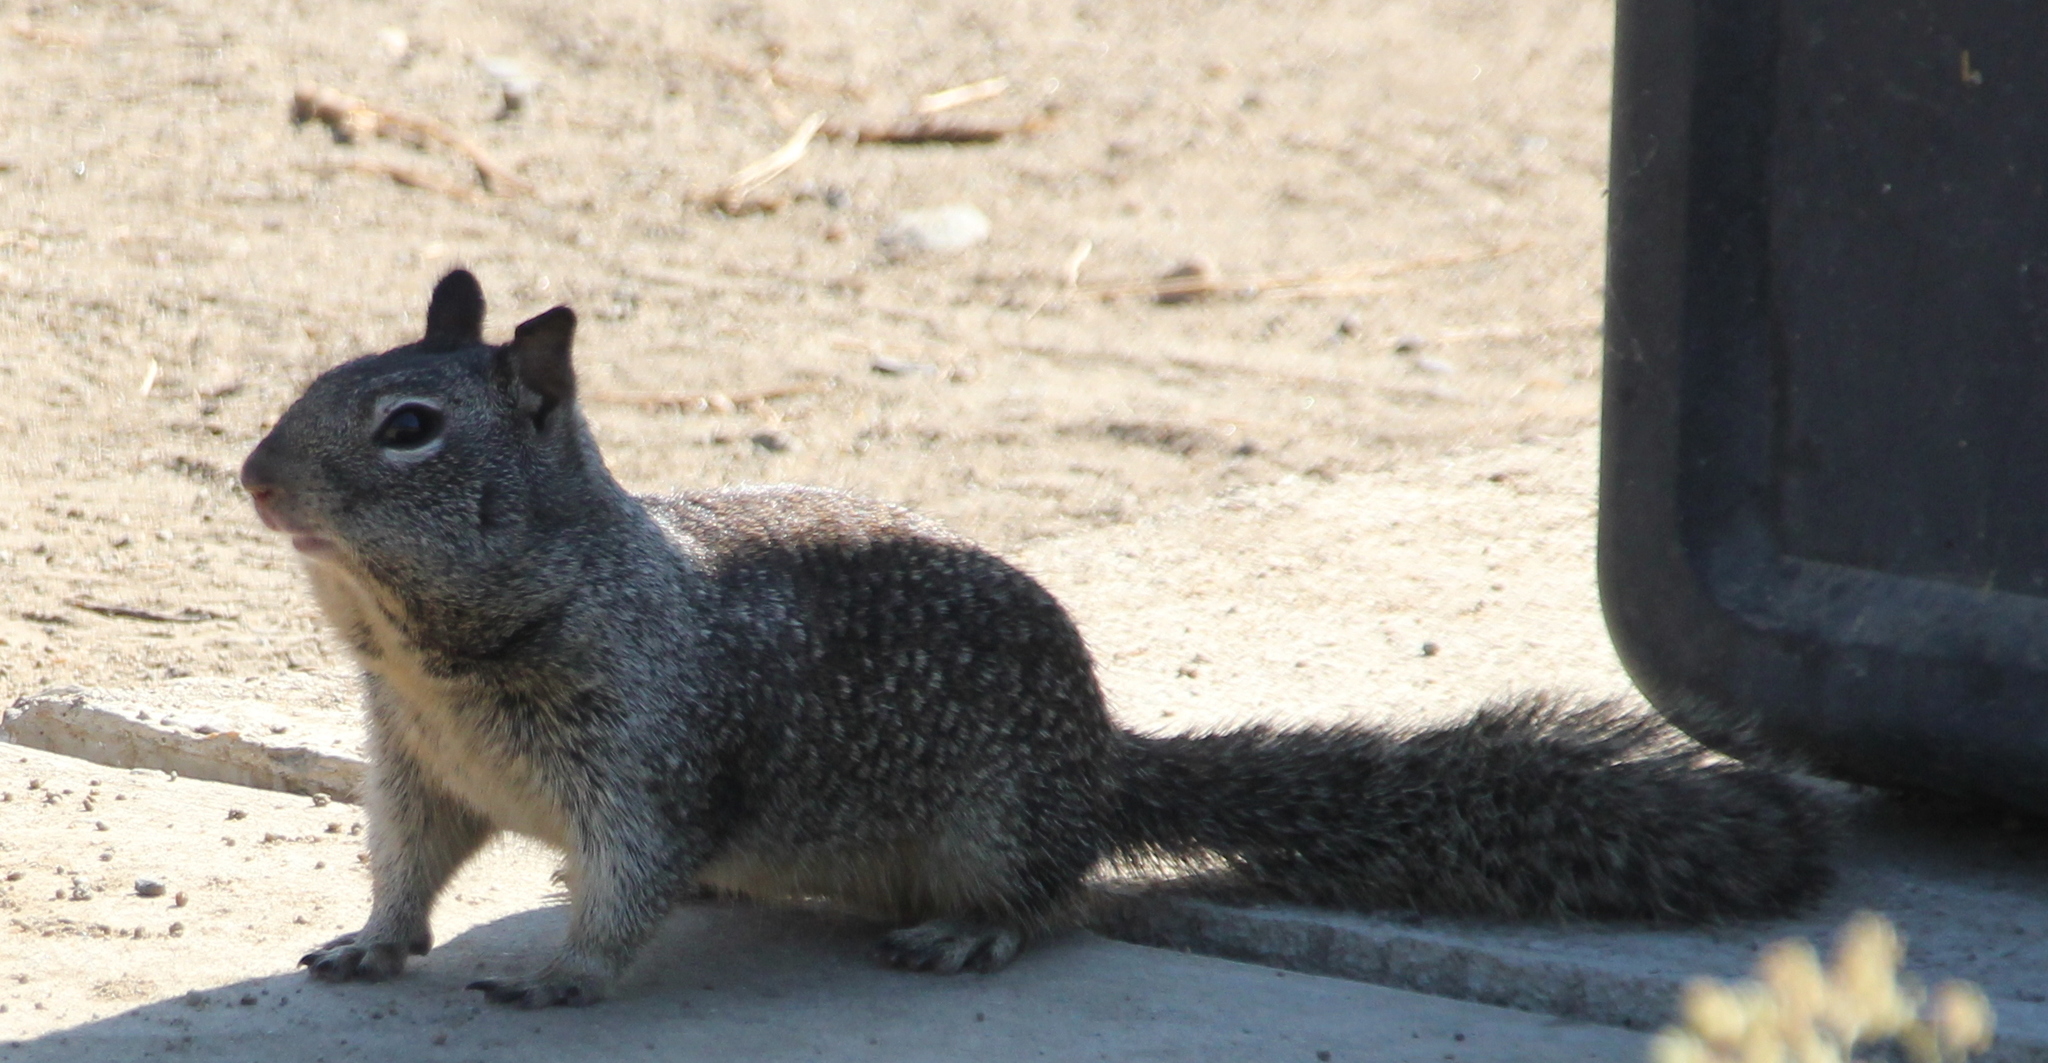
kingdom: Animalia
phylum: Chordata
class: Mammalia
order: Rodentia
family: Sciuridae
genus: Otospermophilus
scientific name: Otospermophilus beecheyi
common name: California ground squirrel
